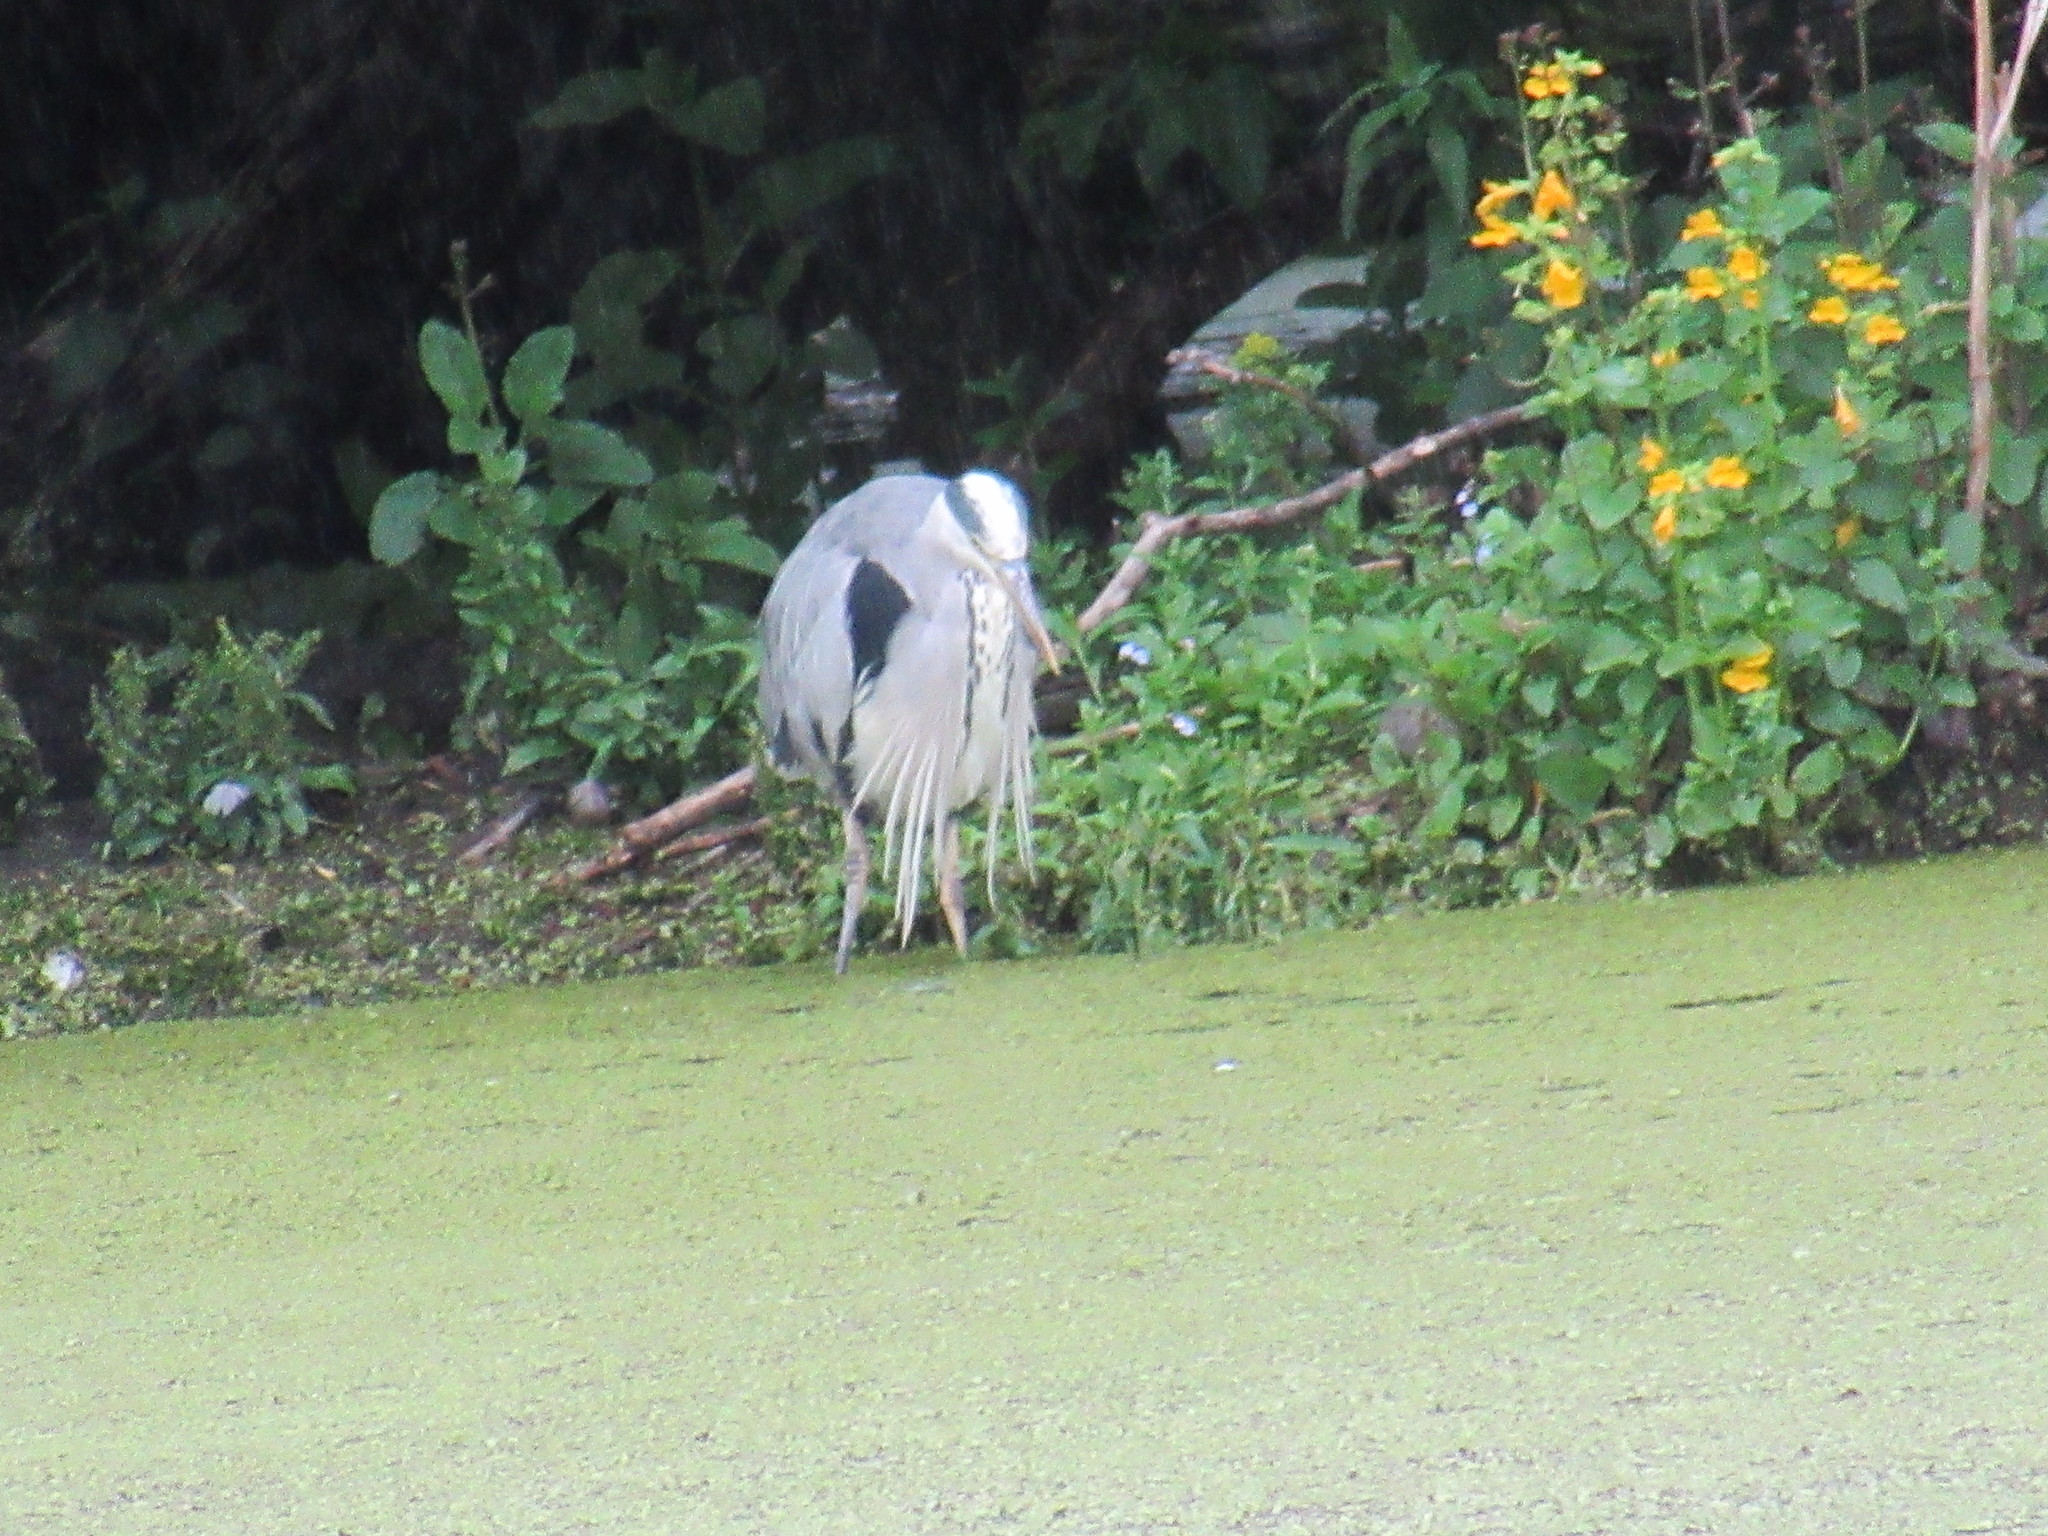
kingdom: Animalia
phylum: Chordata
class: Aves
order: Pelecaniformes
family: Ardeidae
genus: Ardea
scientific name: Ardea cinerea
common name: Grey heron
